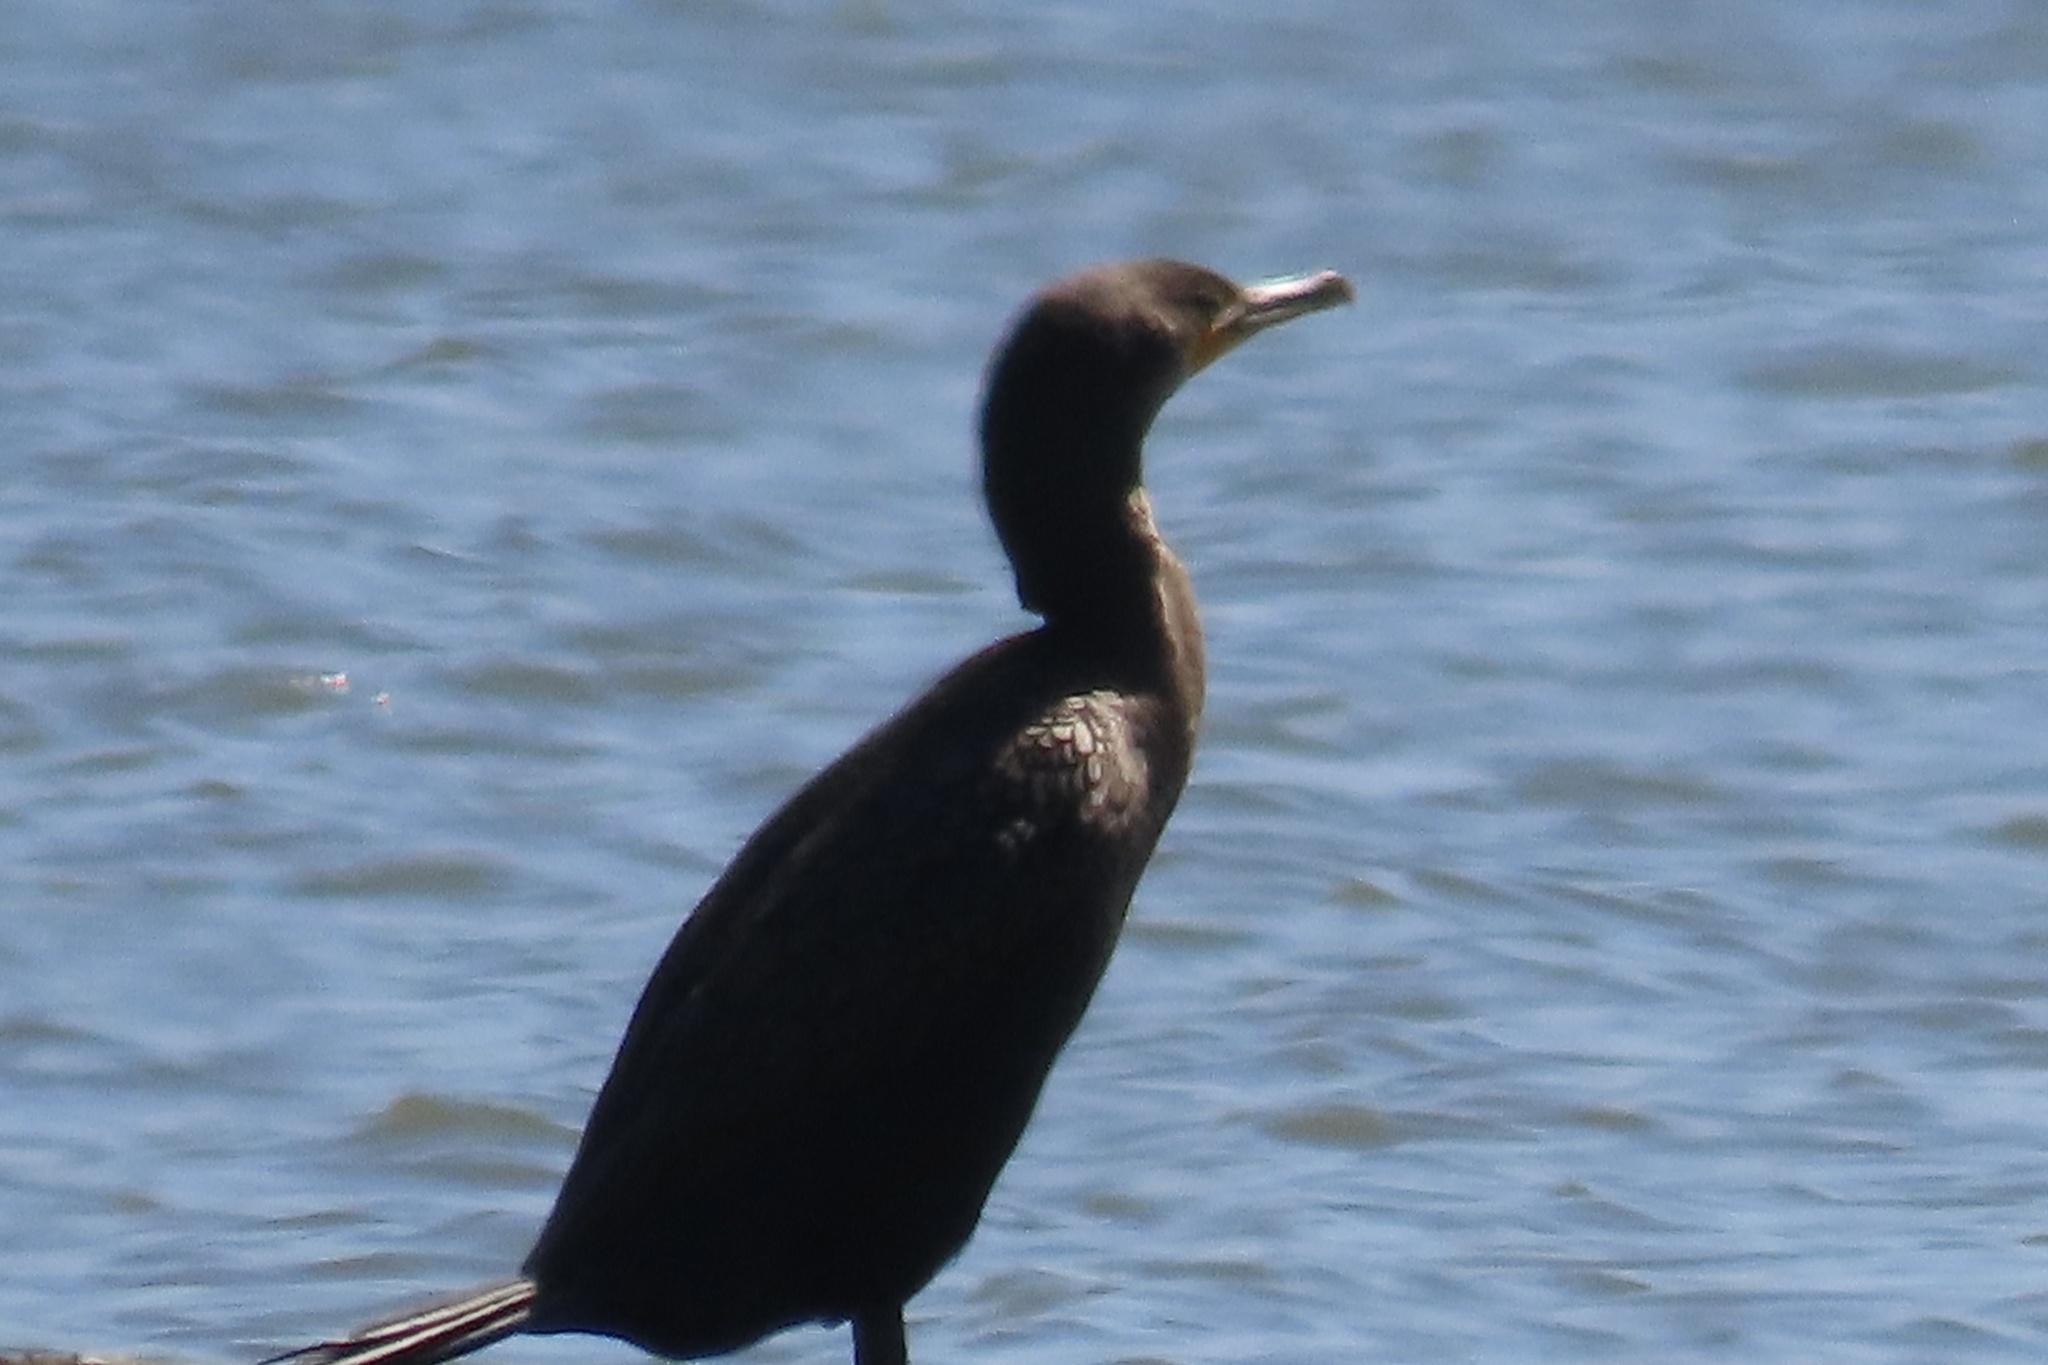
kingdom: Animalia
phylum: Chordata
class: Aves
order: Suliformes
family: Phalacrocoracidae
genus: Phalacrocorax
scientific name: Phalacrocorax auritus
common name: Double-crested cormorant
